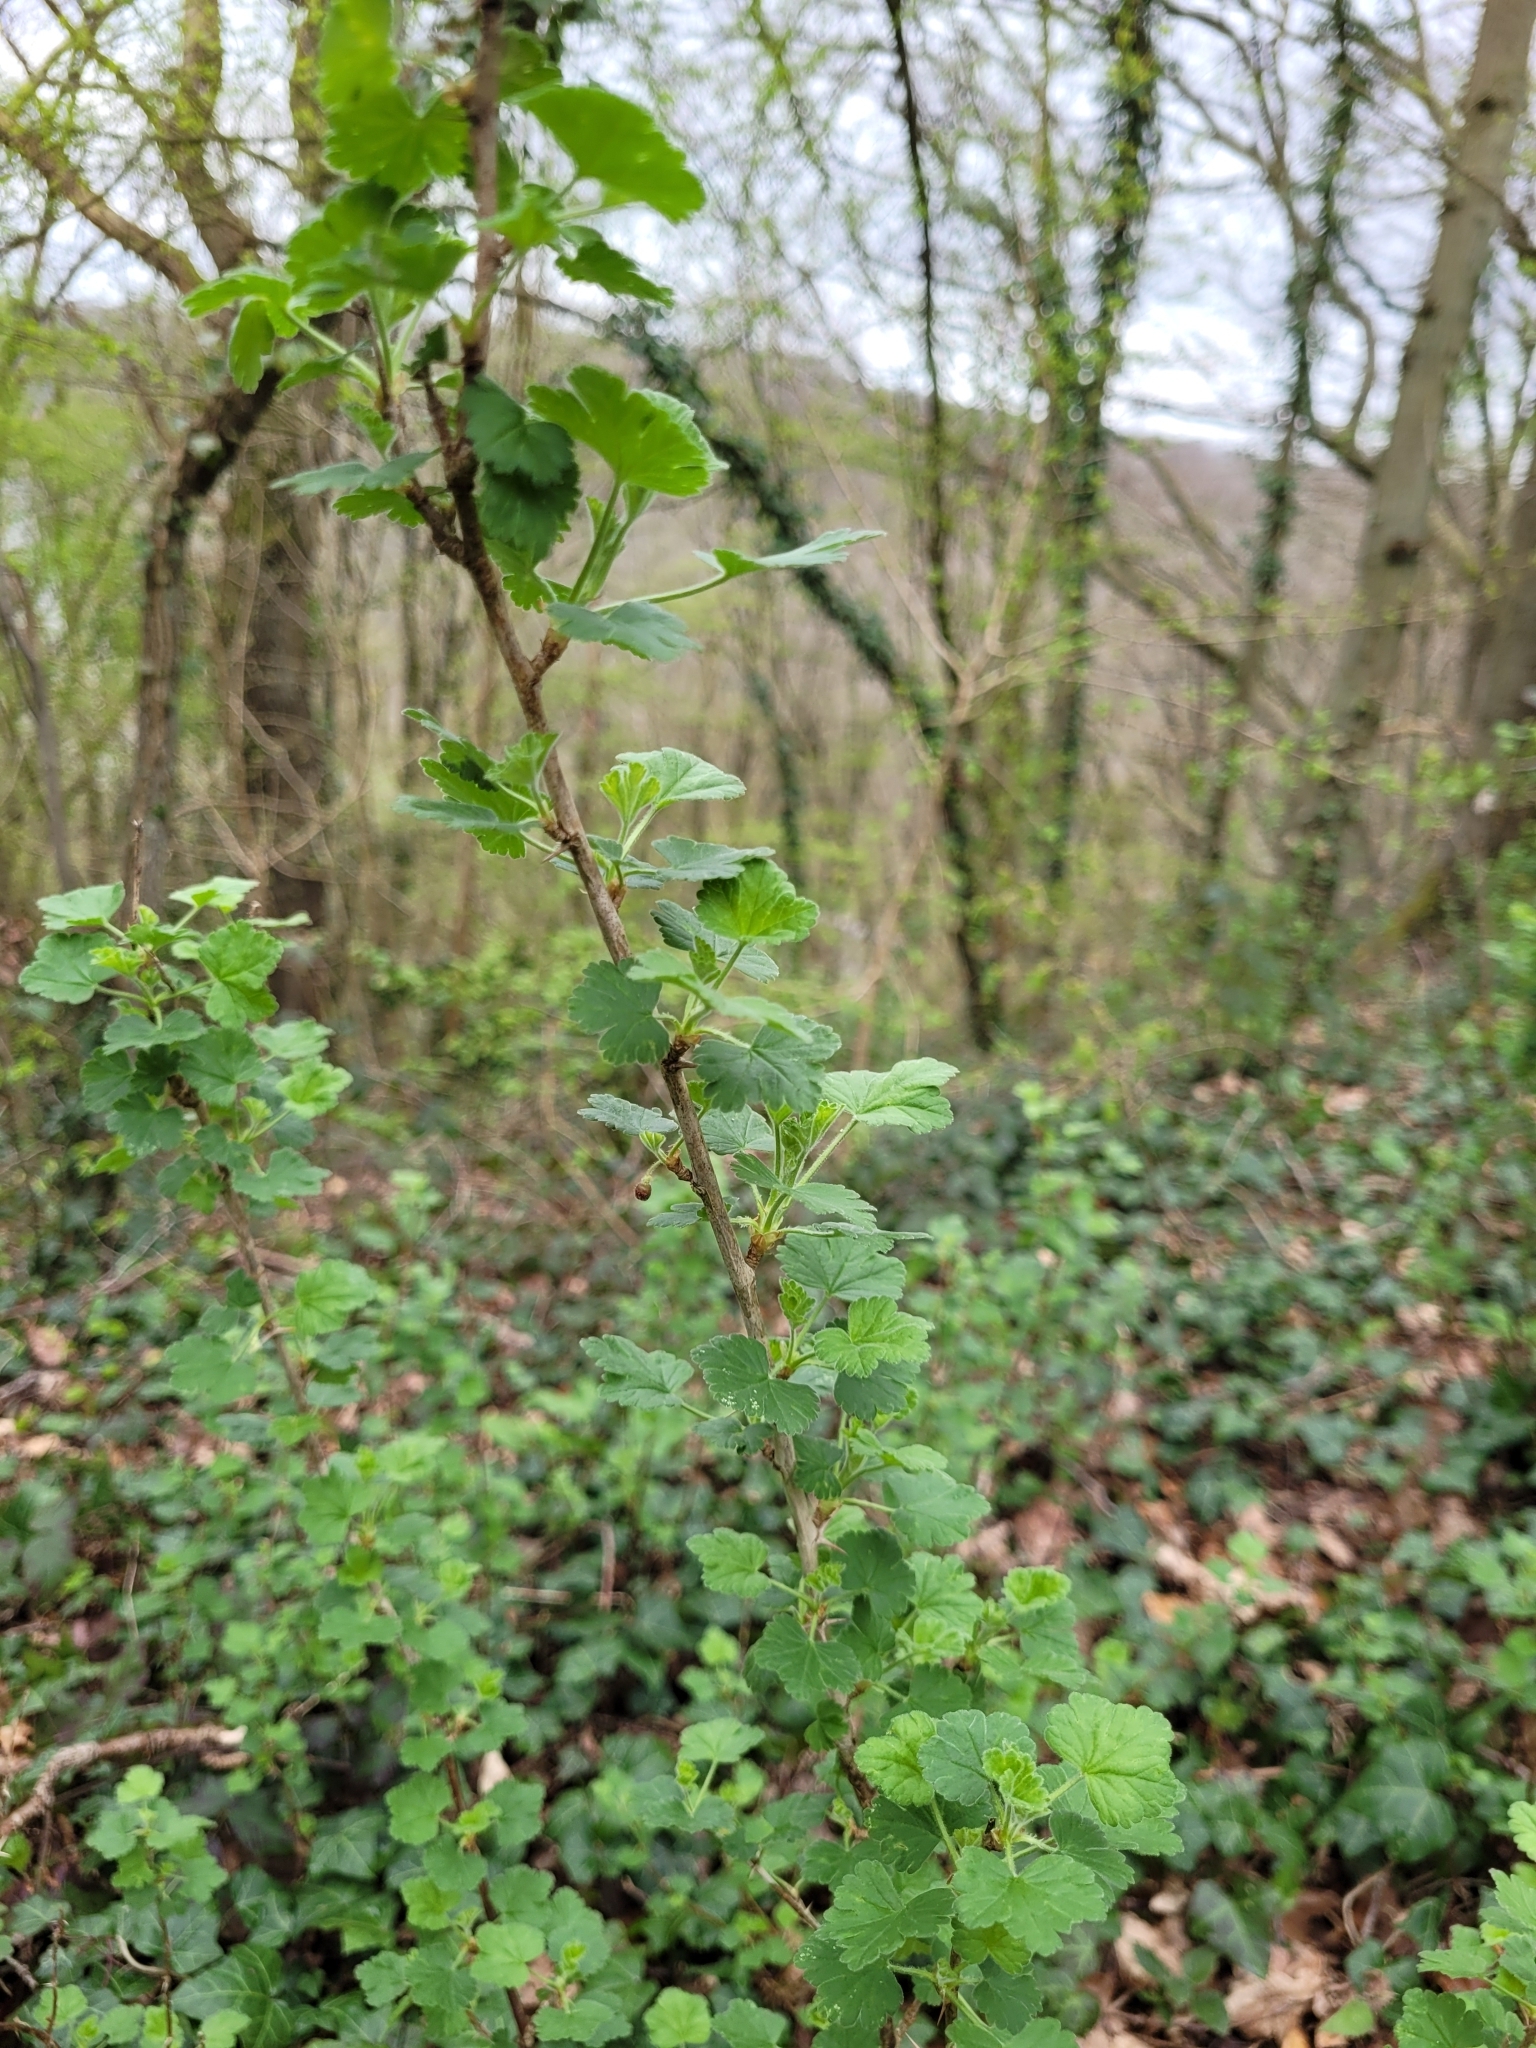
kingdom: Plantae
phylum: Tracheophyta
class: Magnoliopsida
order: Saxifragales
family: Grossulariaceae
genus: Ribes
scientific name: Ribes uva-crispa
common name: Gooseberry
